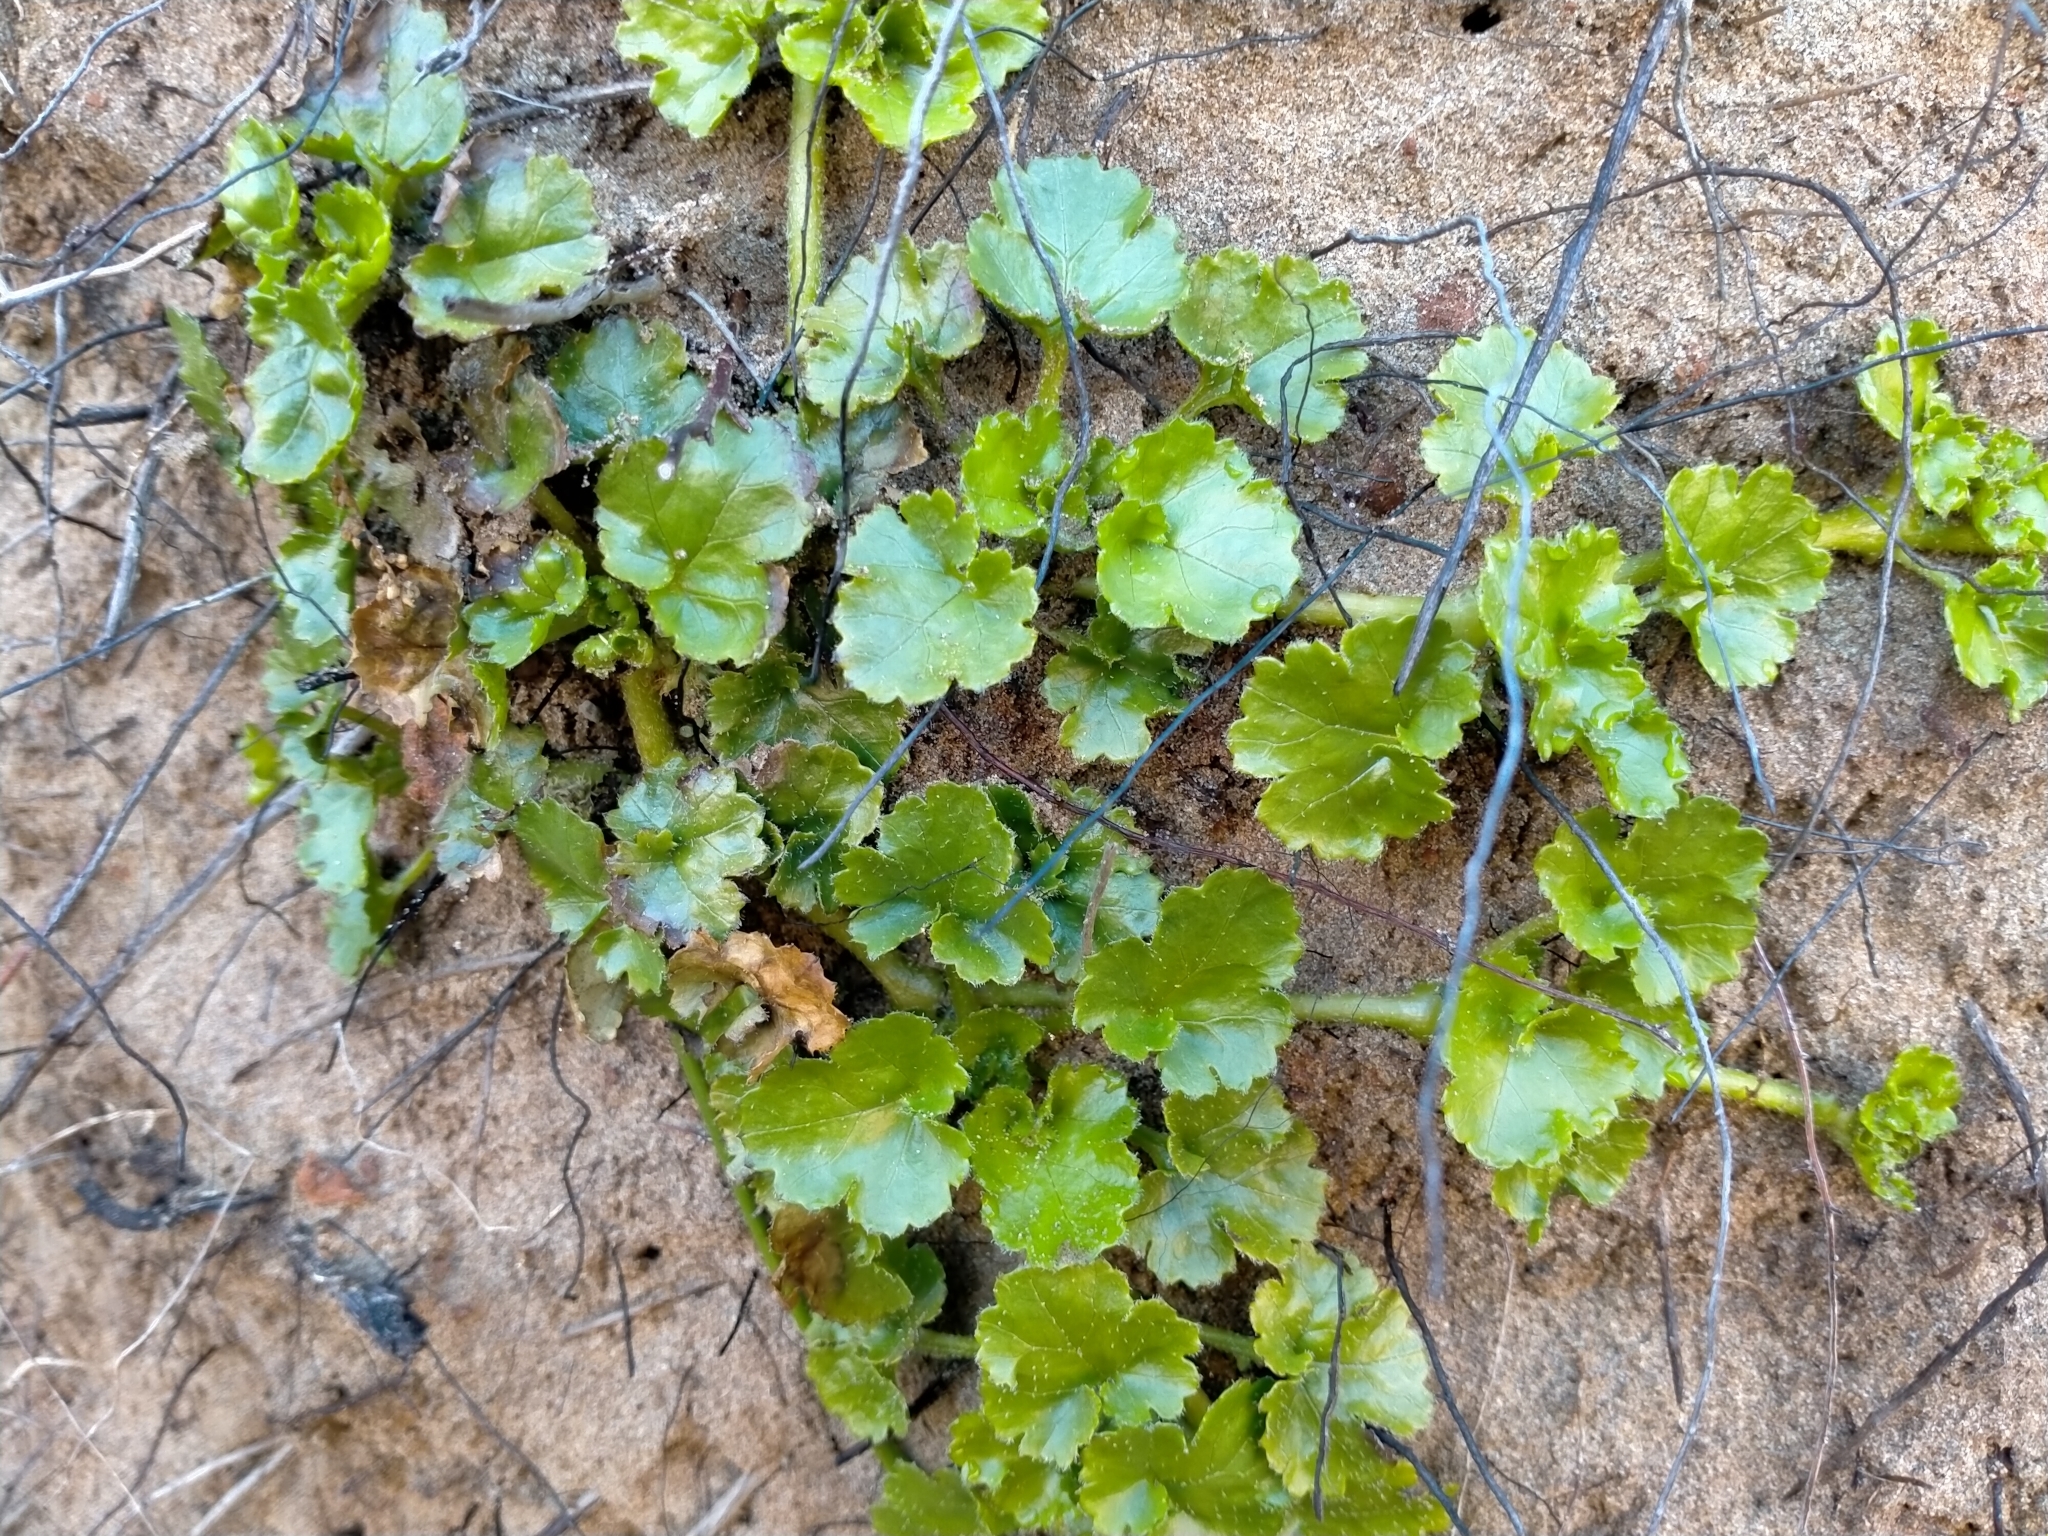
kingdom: Plantae
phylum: Tracheophyta
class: Magnoliopsida
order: Gunnerales
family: Gunneraceae
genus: Gunnera
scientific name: Gunnera monoica
